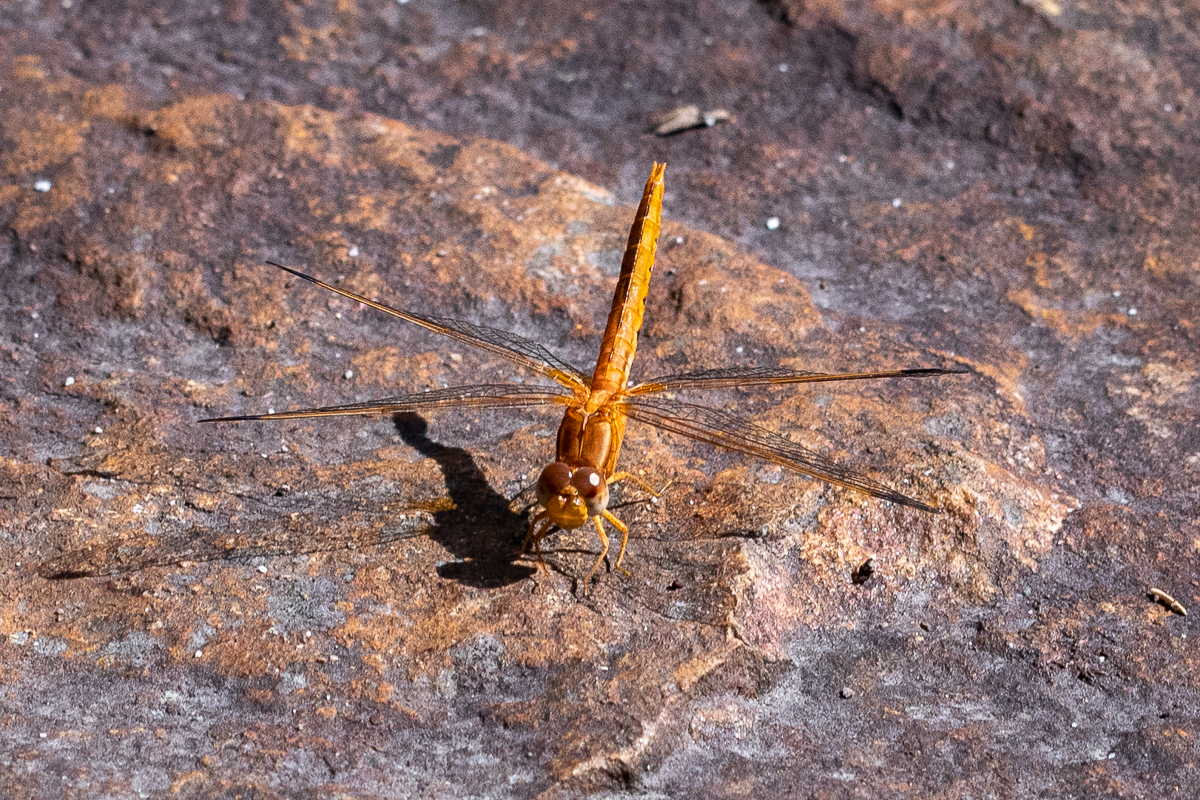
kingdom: Animalia
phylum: Arthropoda
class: Insecta
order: Odonata
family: Libellulidae
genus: Crocothemis
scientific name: Crocothemis sanguinolenta
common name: Little scarlet
